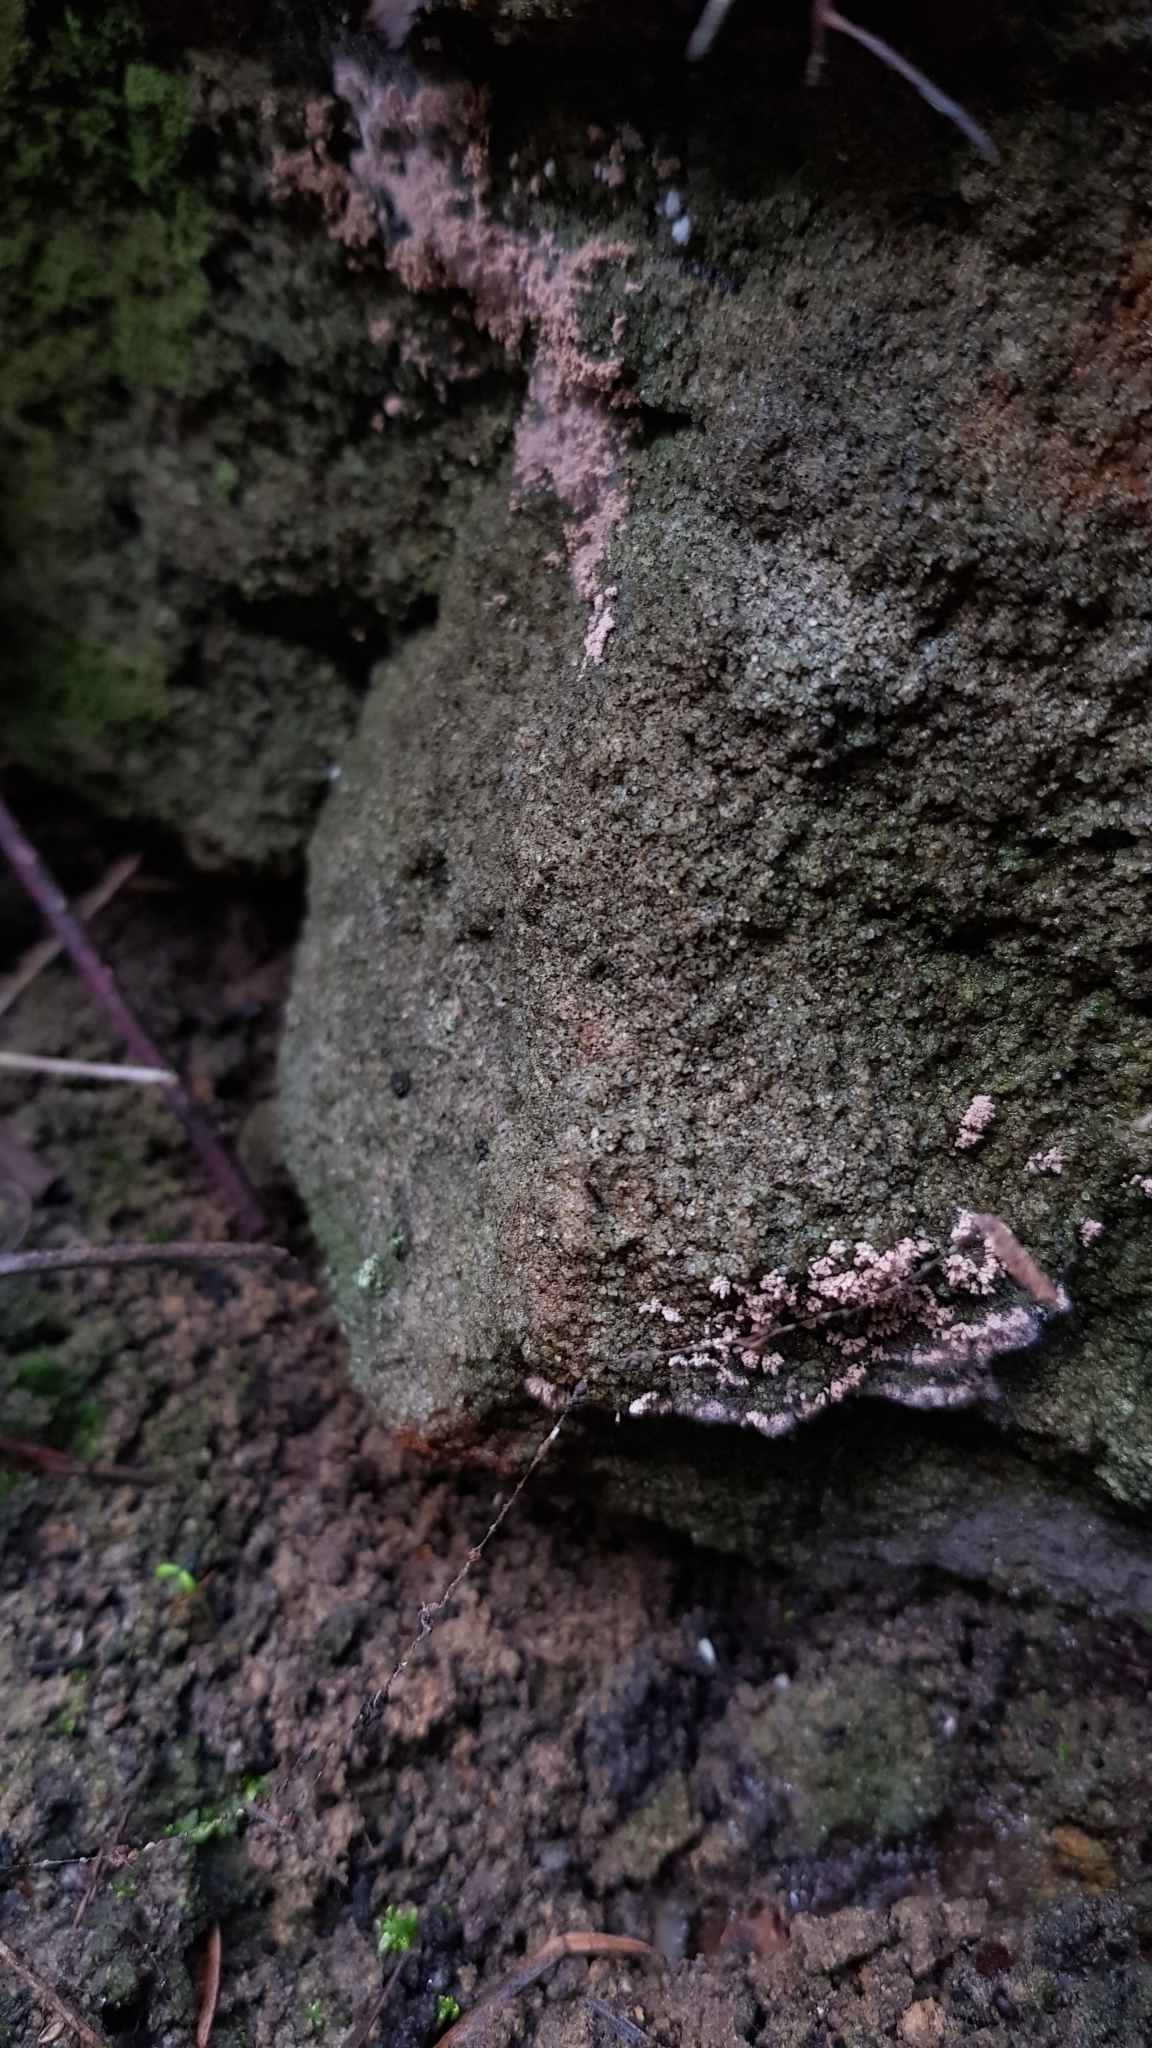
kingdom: Fungi
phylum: Ascomycota
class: Pezizomycetes
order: Pezizales
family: Pezizaceae
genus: Chromelosporiopsis
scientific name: Chromelosporiopsis carnea
